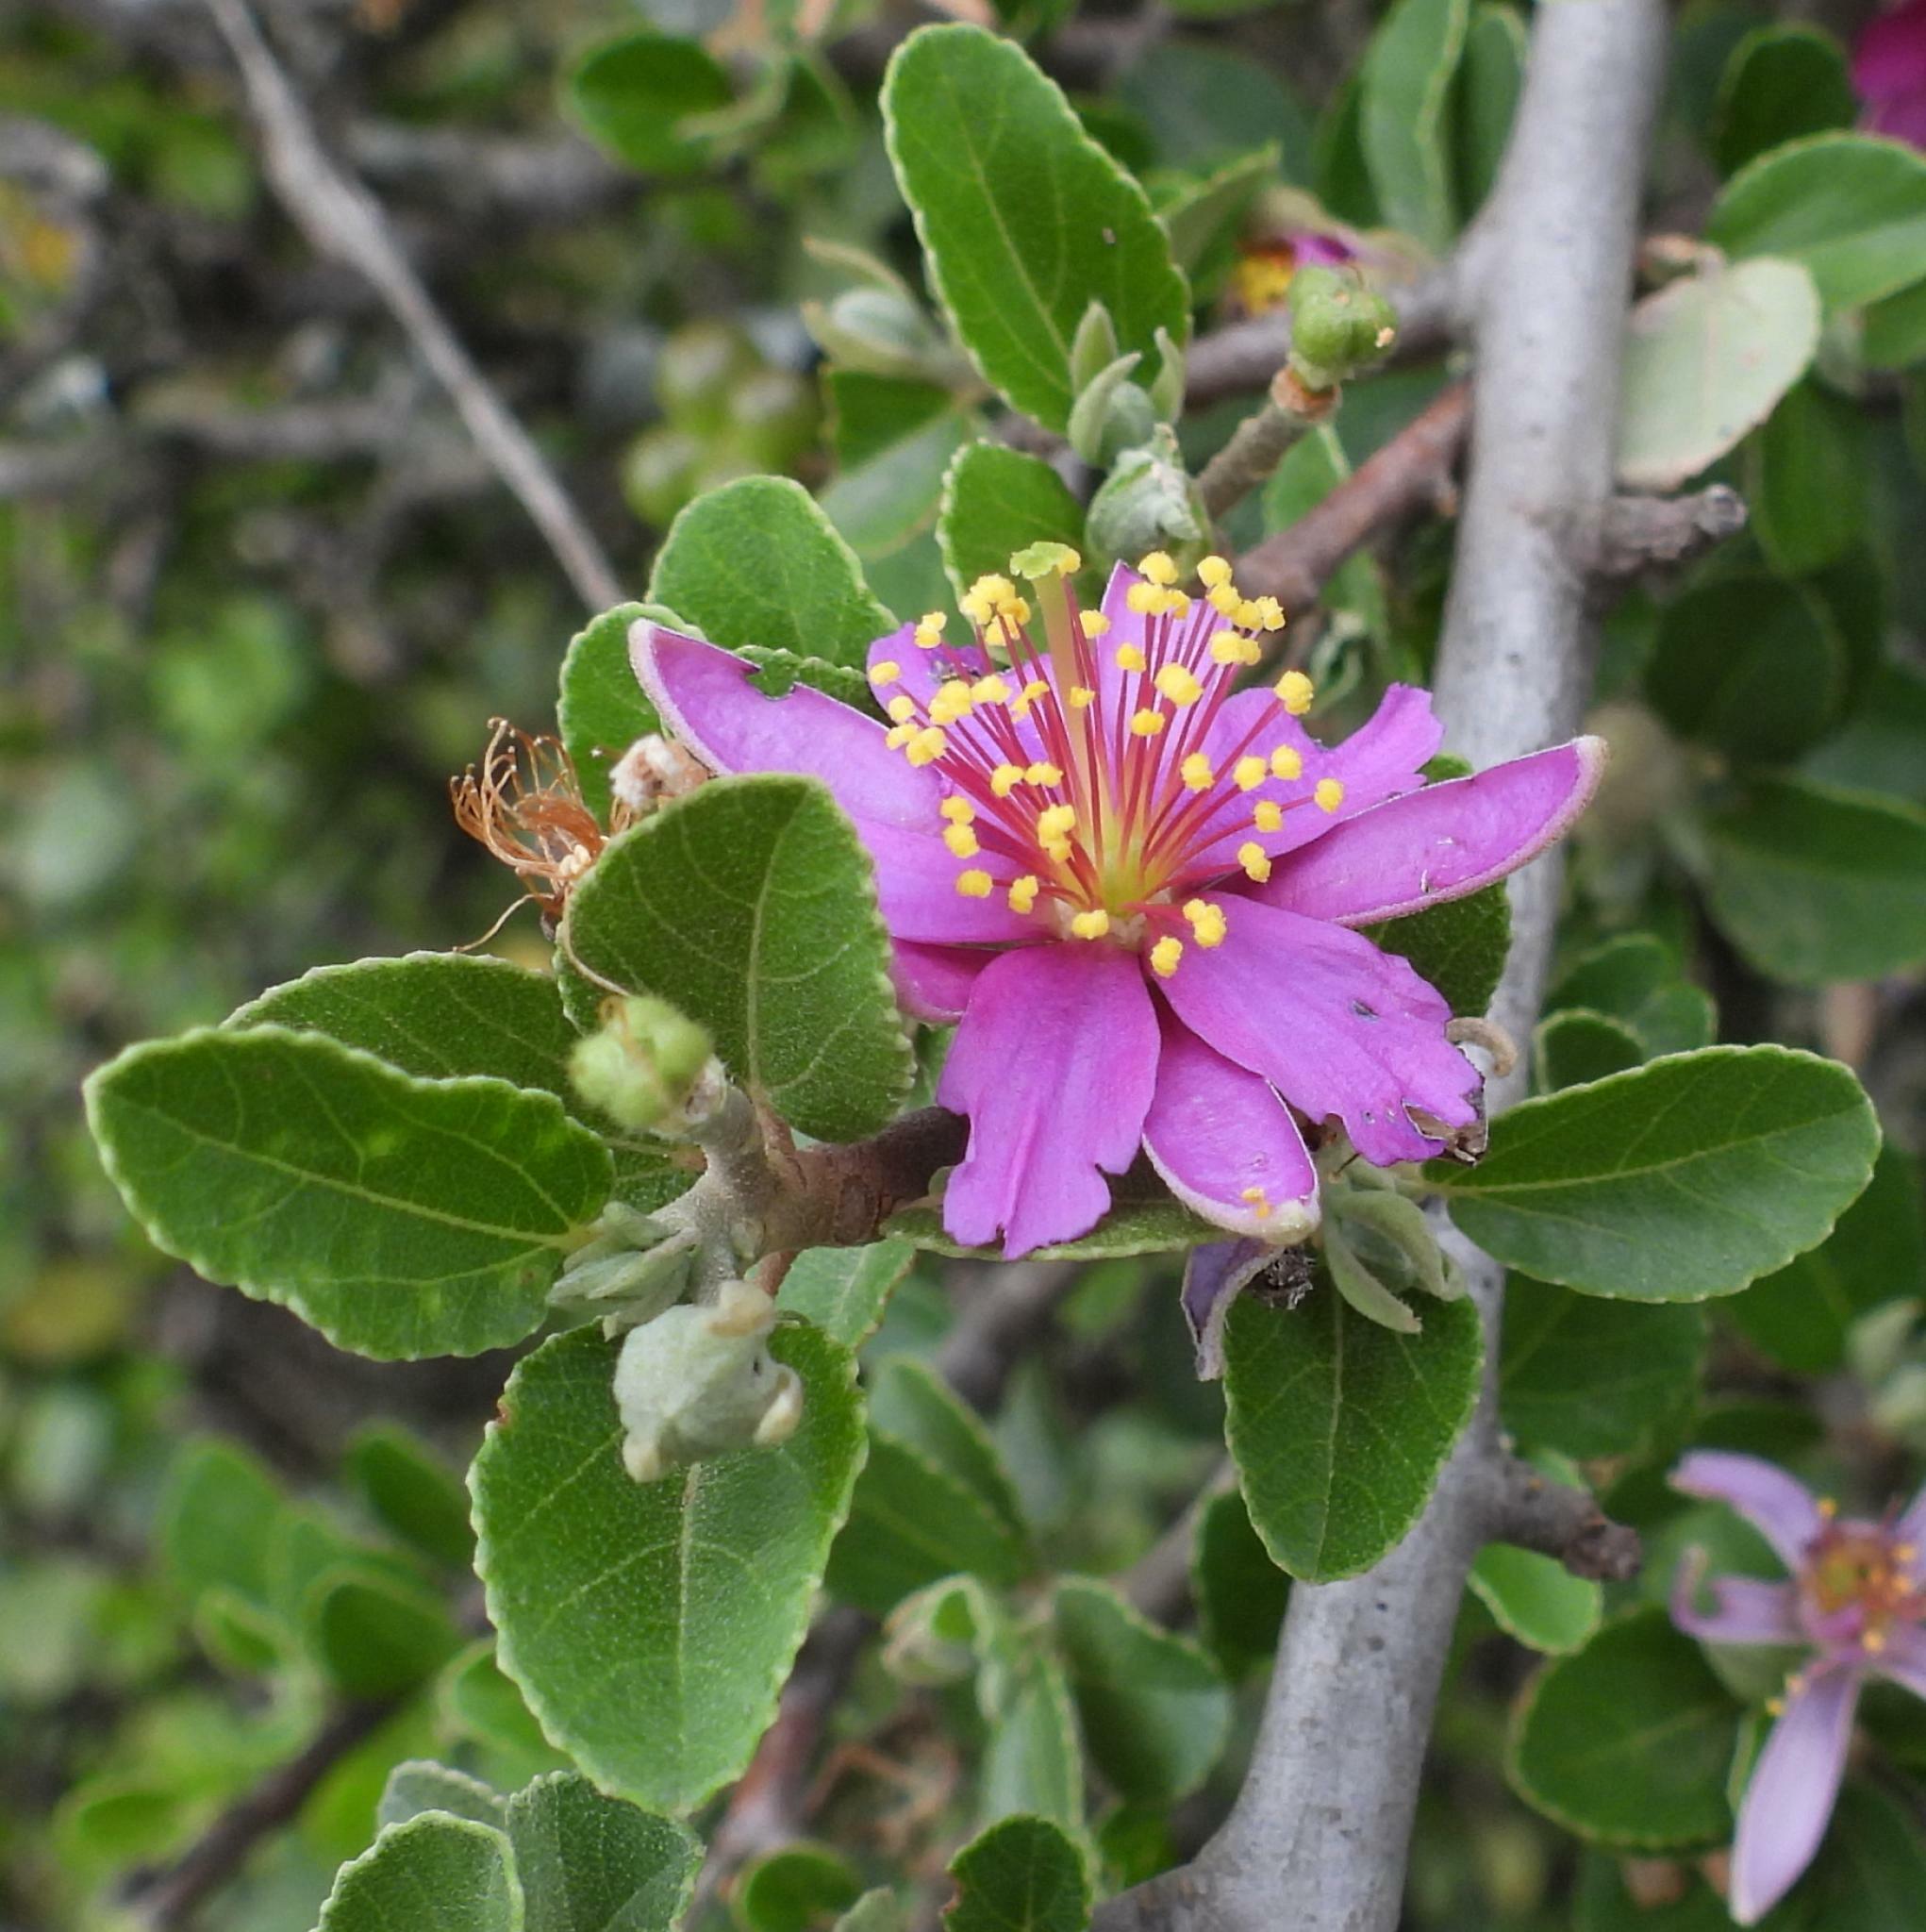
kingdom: Plantae
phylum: Tracheophyta
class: Magnoliopsida
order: Malvales
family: Malvaceae
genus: Grewia
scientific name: Grewia robusta
